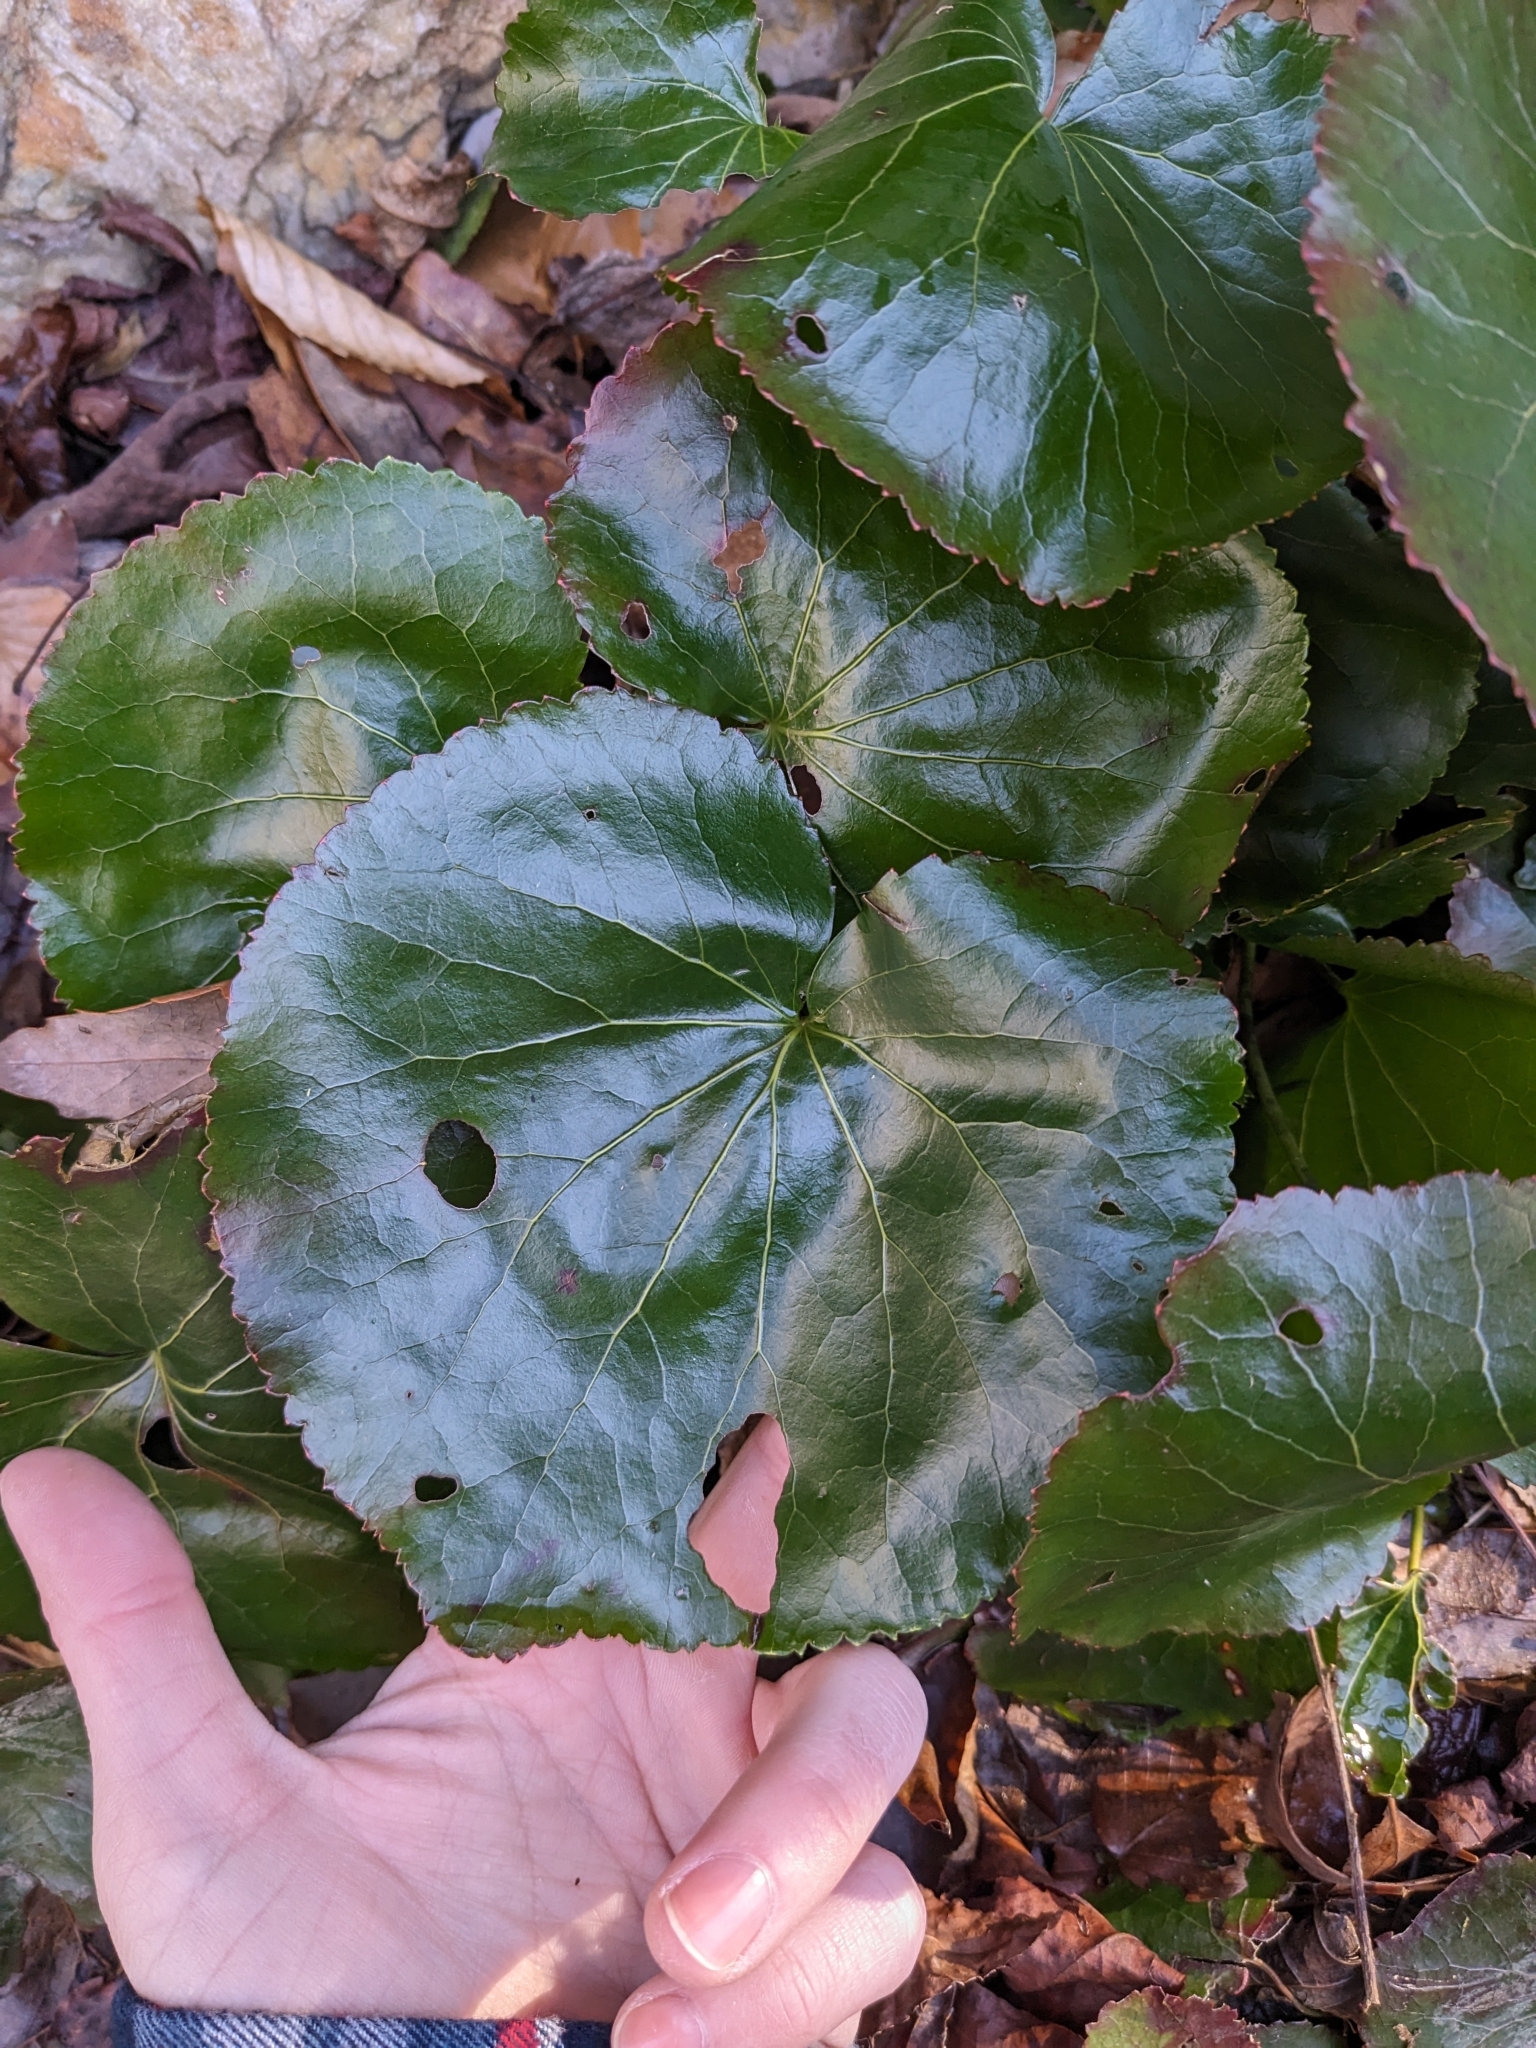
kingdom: Plantae
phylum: Tracheophyta
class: Magnoliopsida
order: Ericales
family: Diapensiaceae
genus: Galax
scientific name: Galax urceolata
